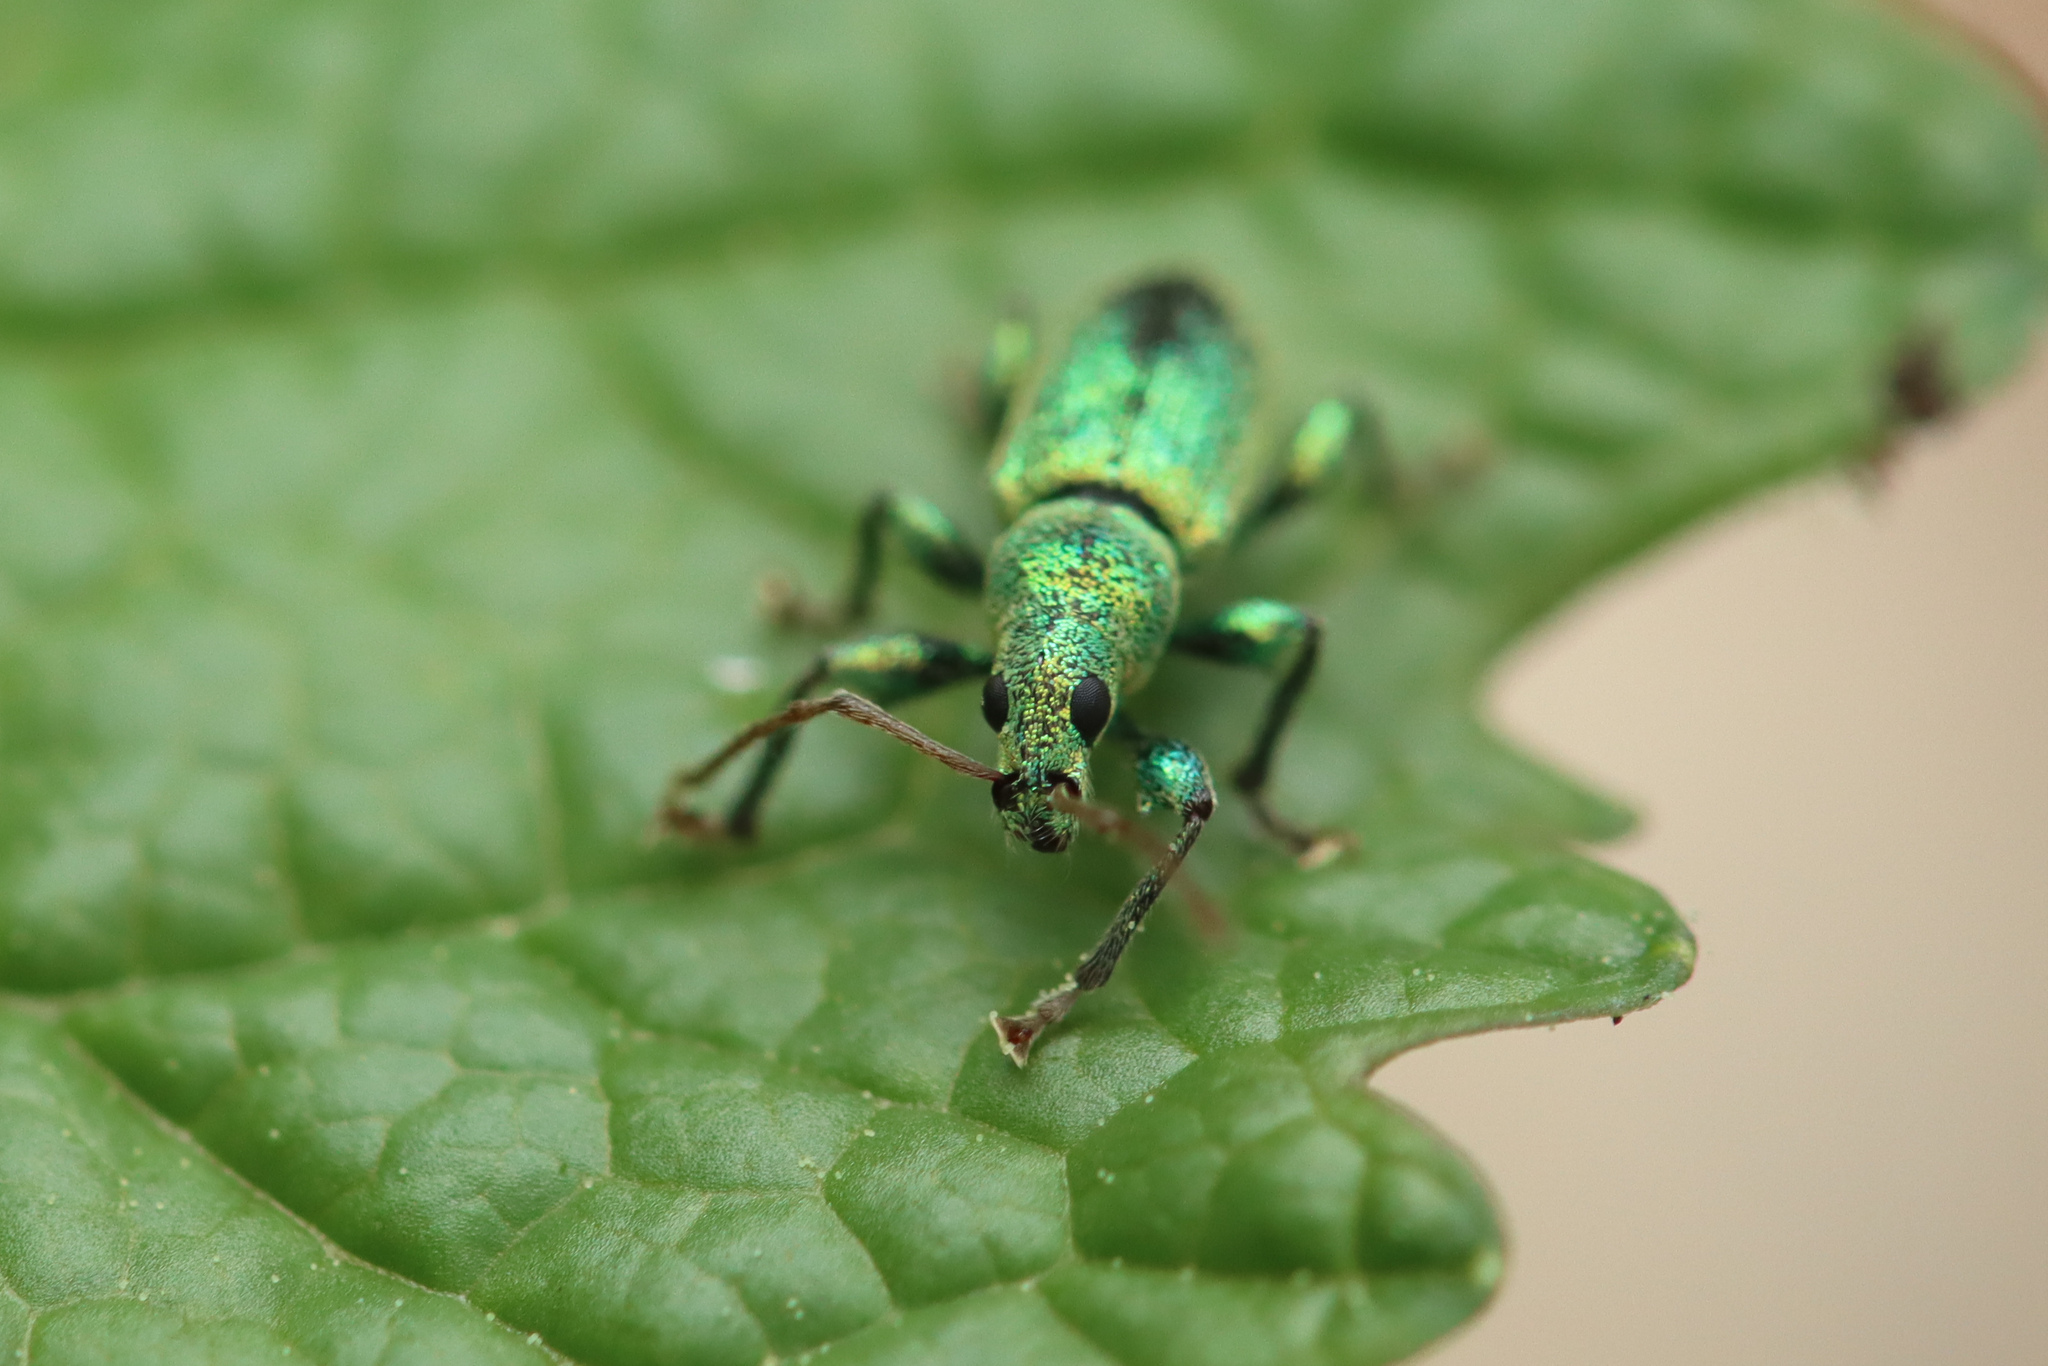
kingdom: Animalia
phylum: Arthropoda
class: Insecta
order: Coleoptera
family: Curculionidae
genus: Phyllobius
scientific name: Phyllobius argentatus
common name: Silver-green leaf weevil
